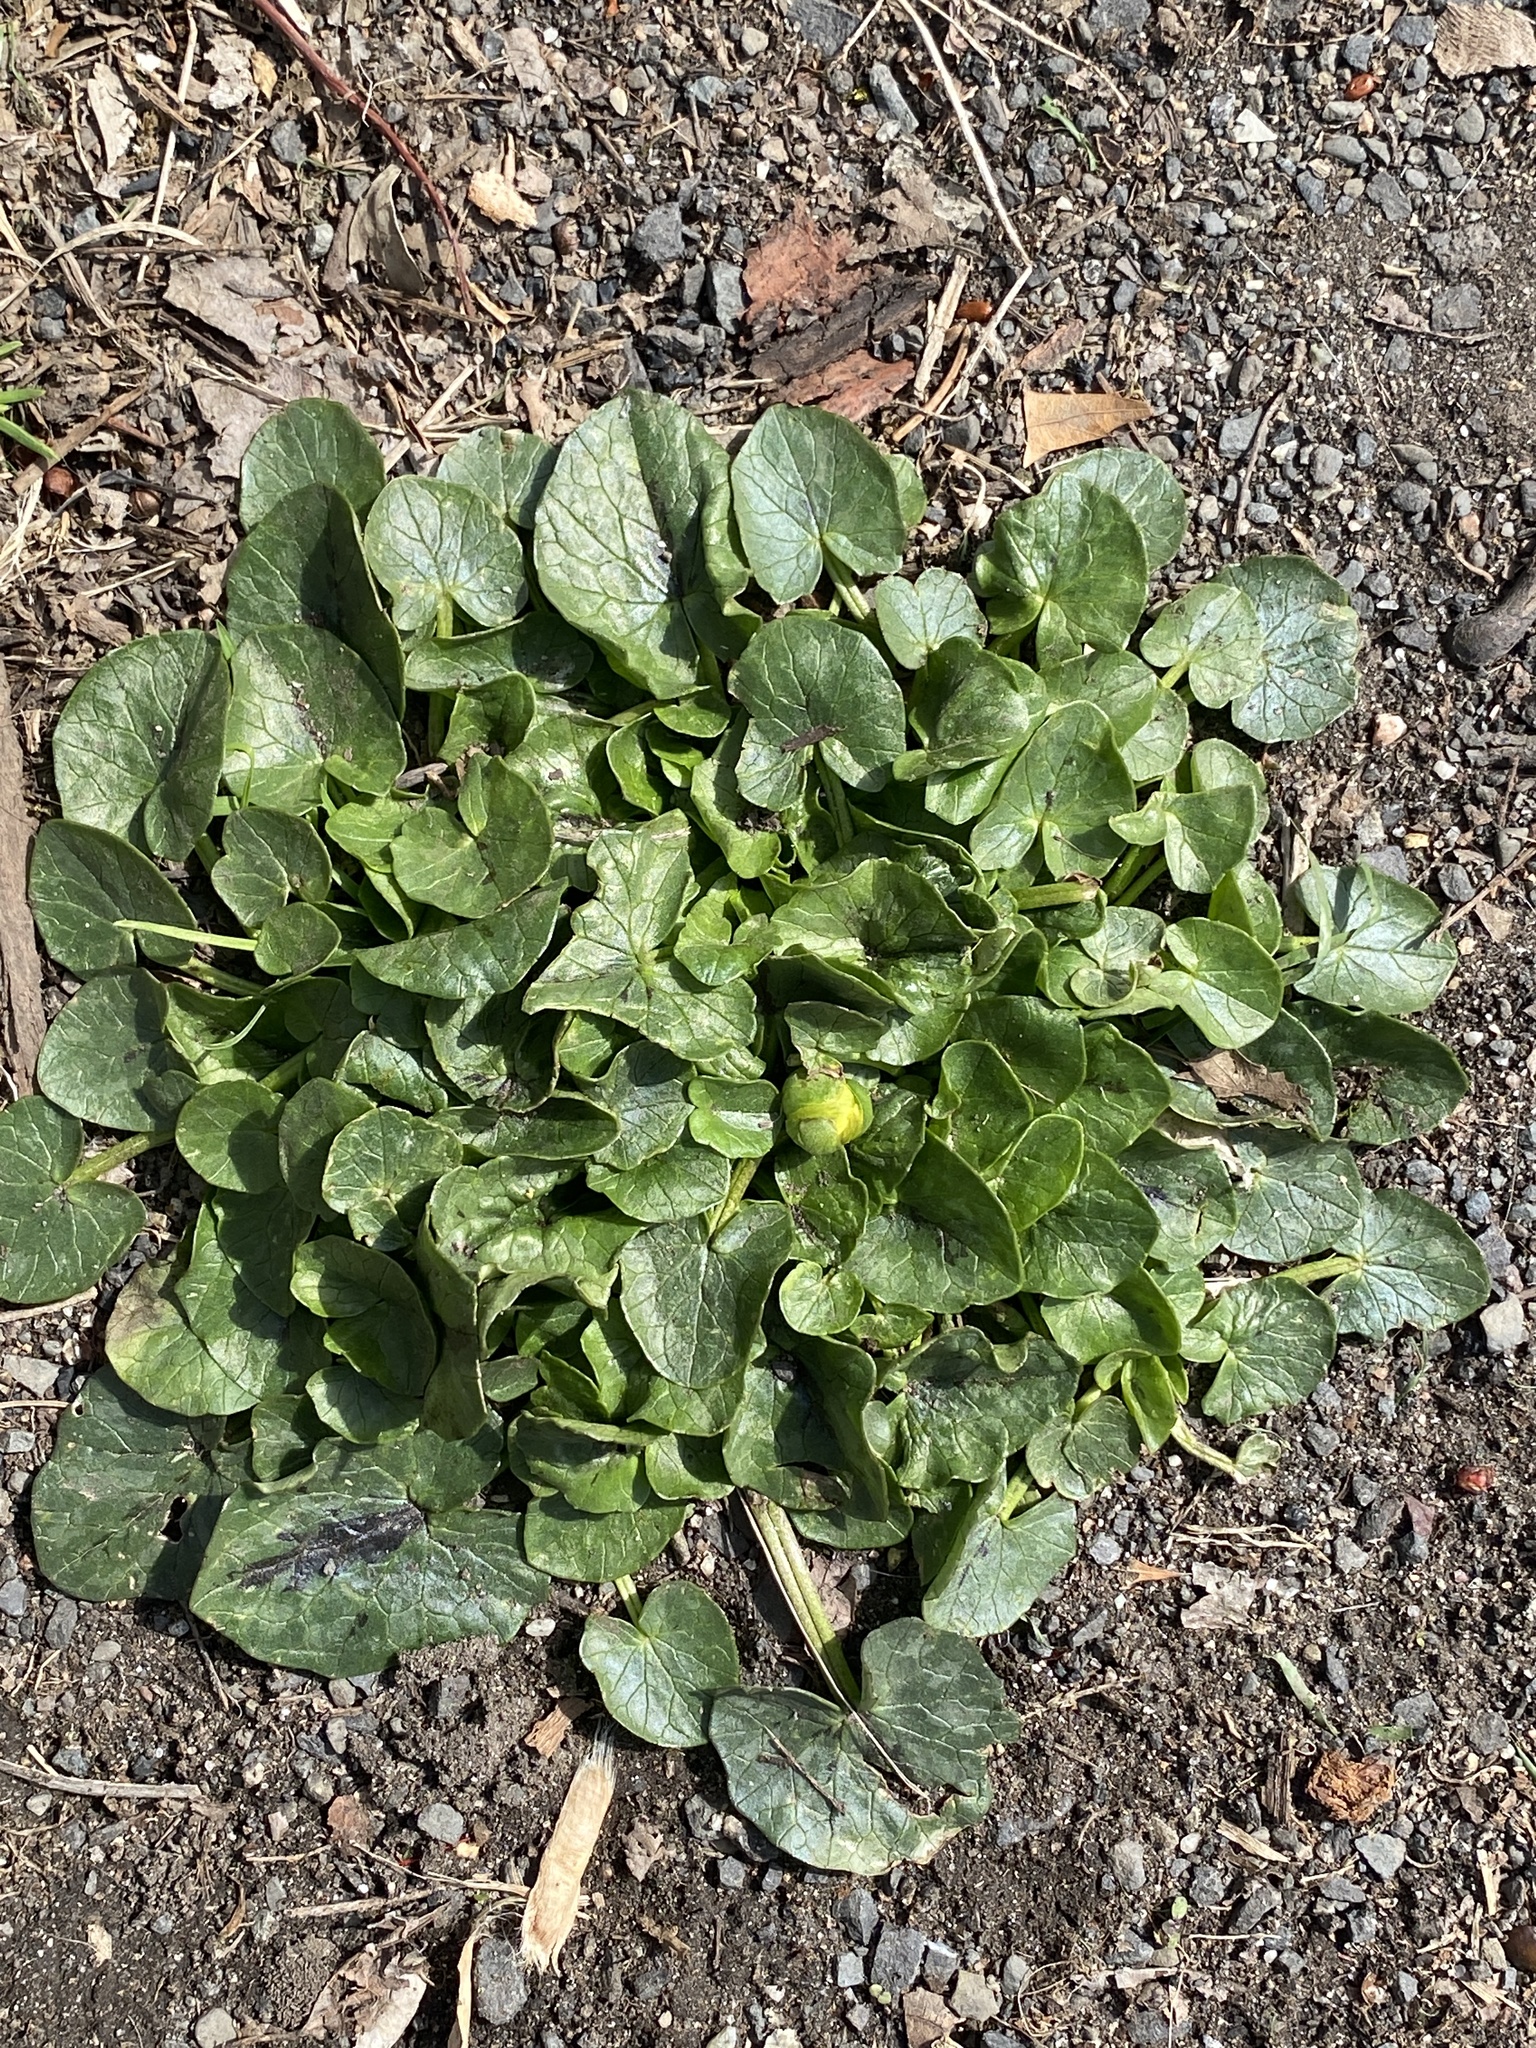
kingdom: Plantae
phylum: Tracheophyta
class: Magnoliopsida
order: Ranunculales
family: Ranunculaceae
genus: Ficaria
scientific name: Ficaria verna
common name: Lesser celandine
